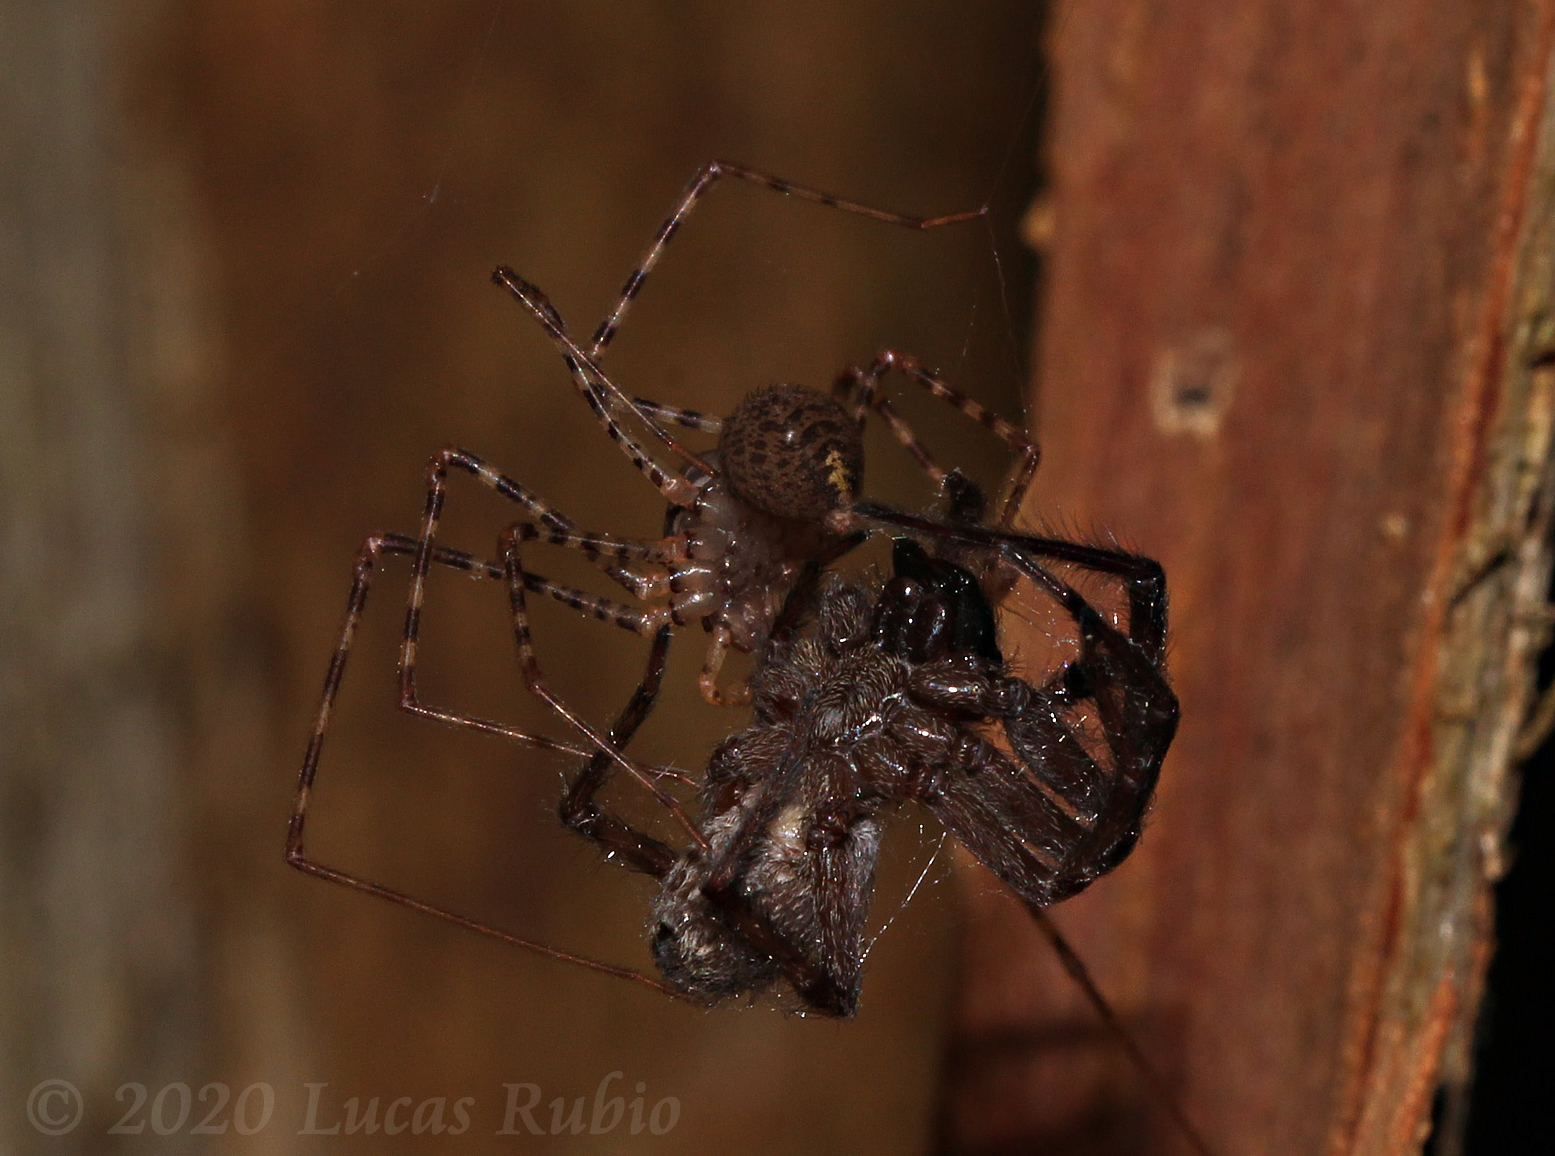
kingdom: Animalia
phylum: Arthropoda
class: Arachnida
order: Araneae
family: Scytodidae
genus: Scytodes
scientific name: Scytodes globula
